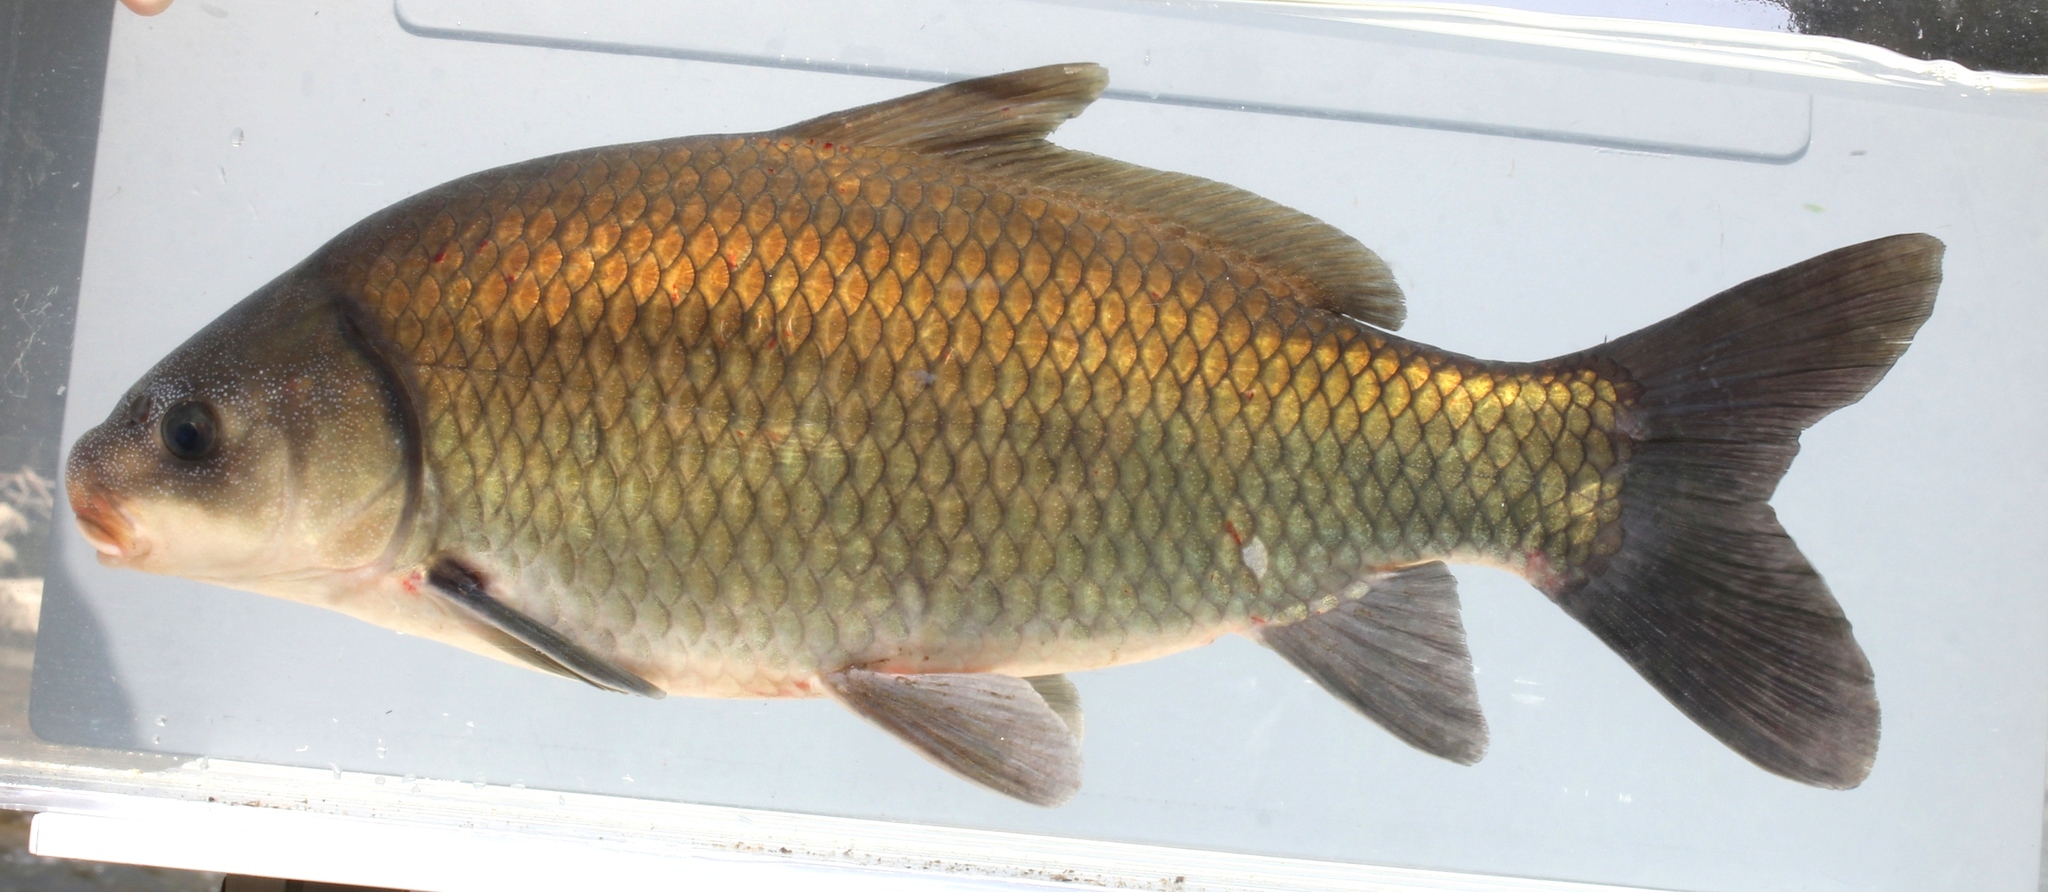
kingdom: Animalia
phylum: Chordata
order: Cypriniformes
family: Catostomidae
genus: Ictiobus
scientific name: Ictiobus bubalus
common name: Smallmouth buffalo
